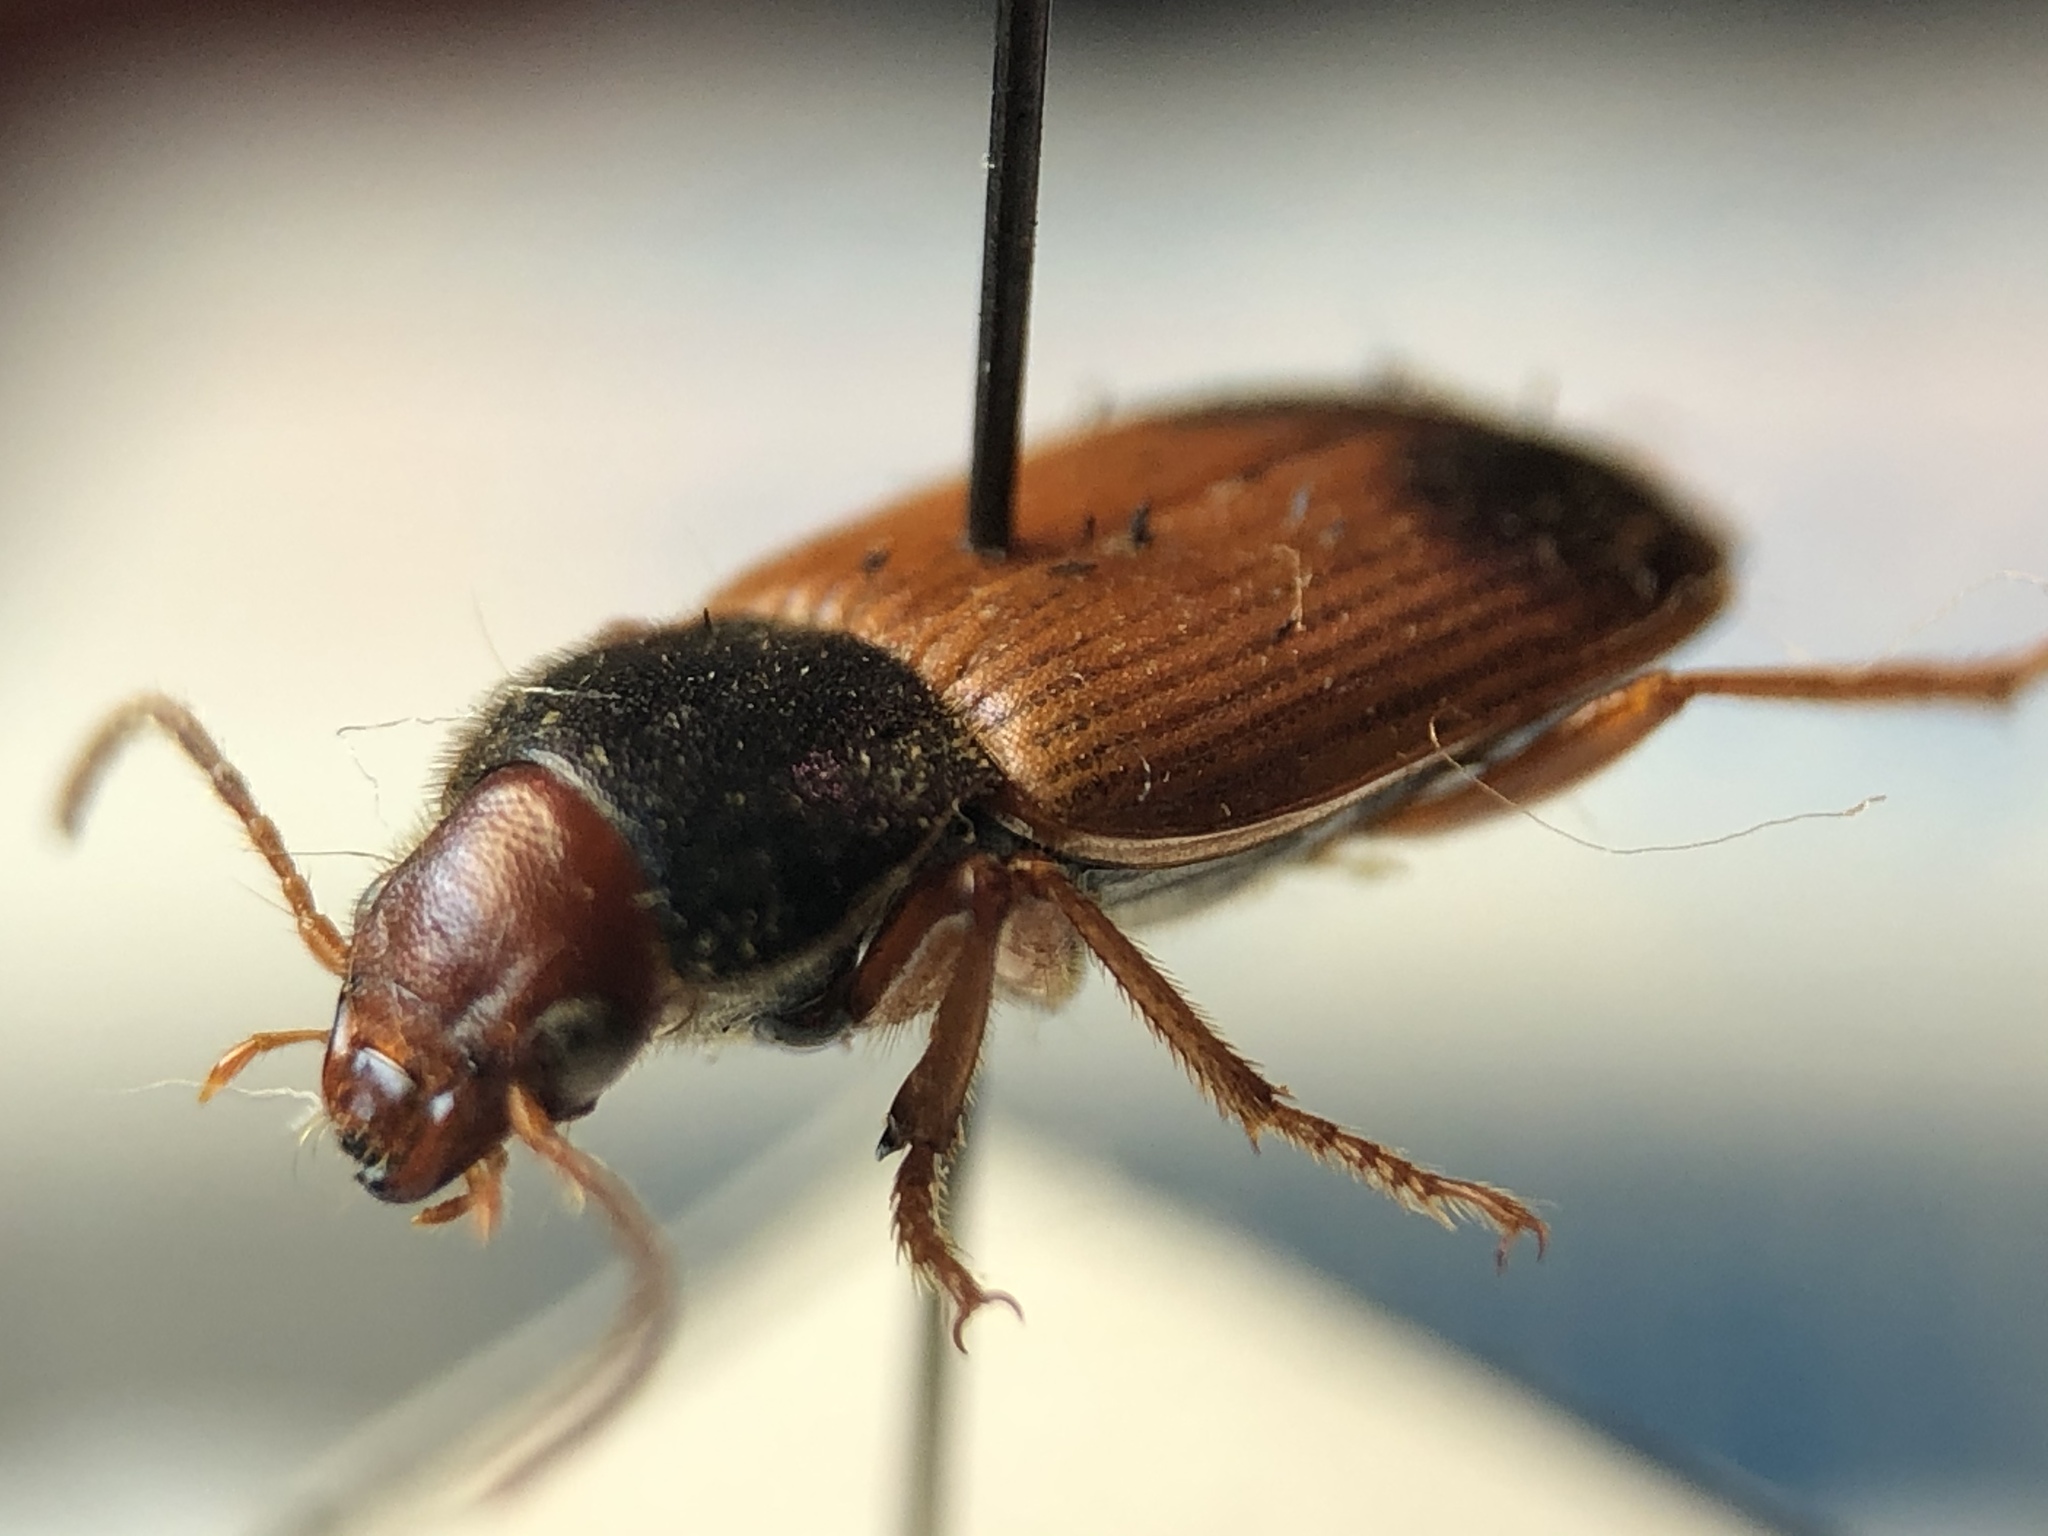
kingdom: Animalia
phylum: Arthropoda
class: Insecta
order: Coleoptera
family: Carabidae
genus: Diachromus
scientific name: Diachromus germanus
